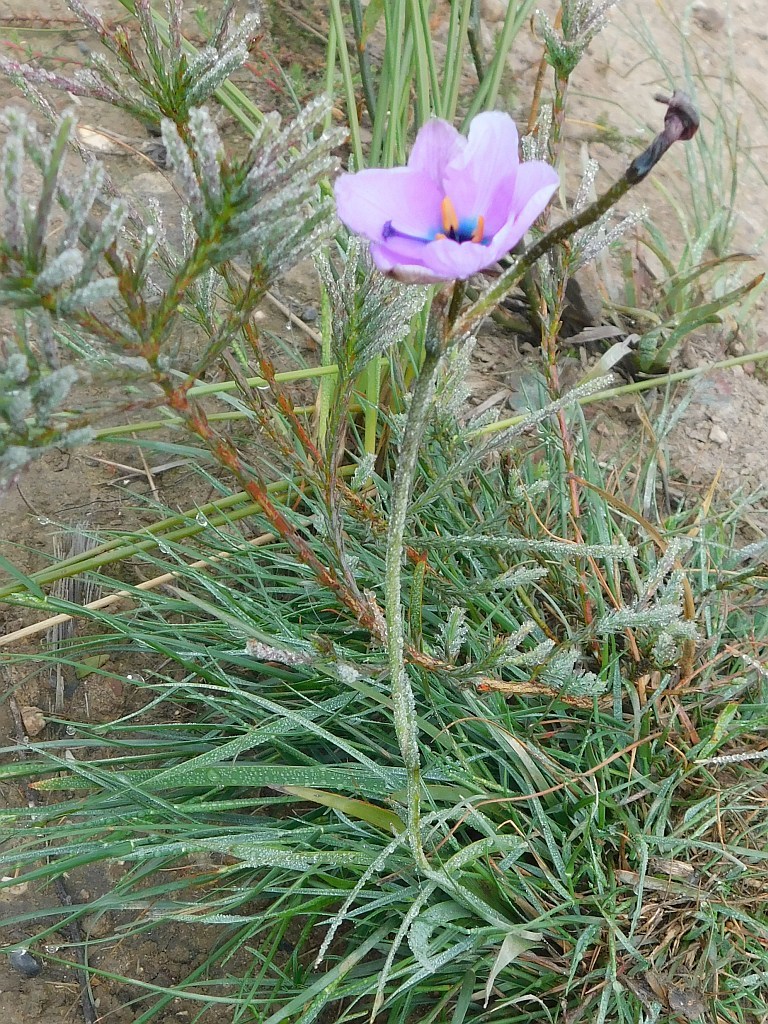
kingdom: Plantae
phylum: Tracheophyta
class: Liliopsida
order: Asparagales
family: Iridaceae
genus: Aristea
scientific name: Aristea cantharophila
